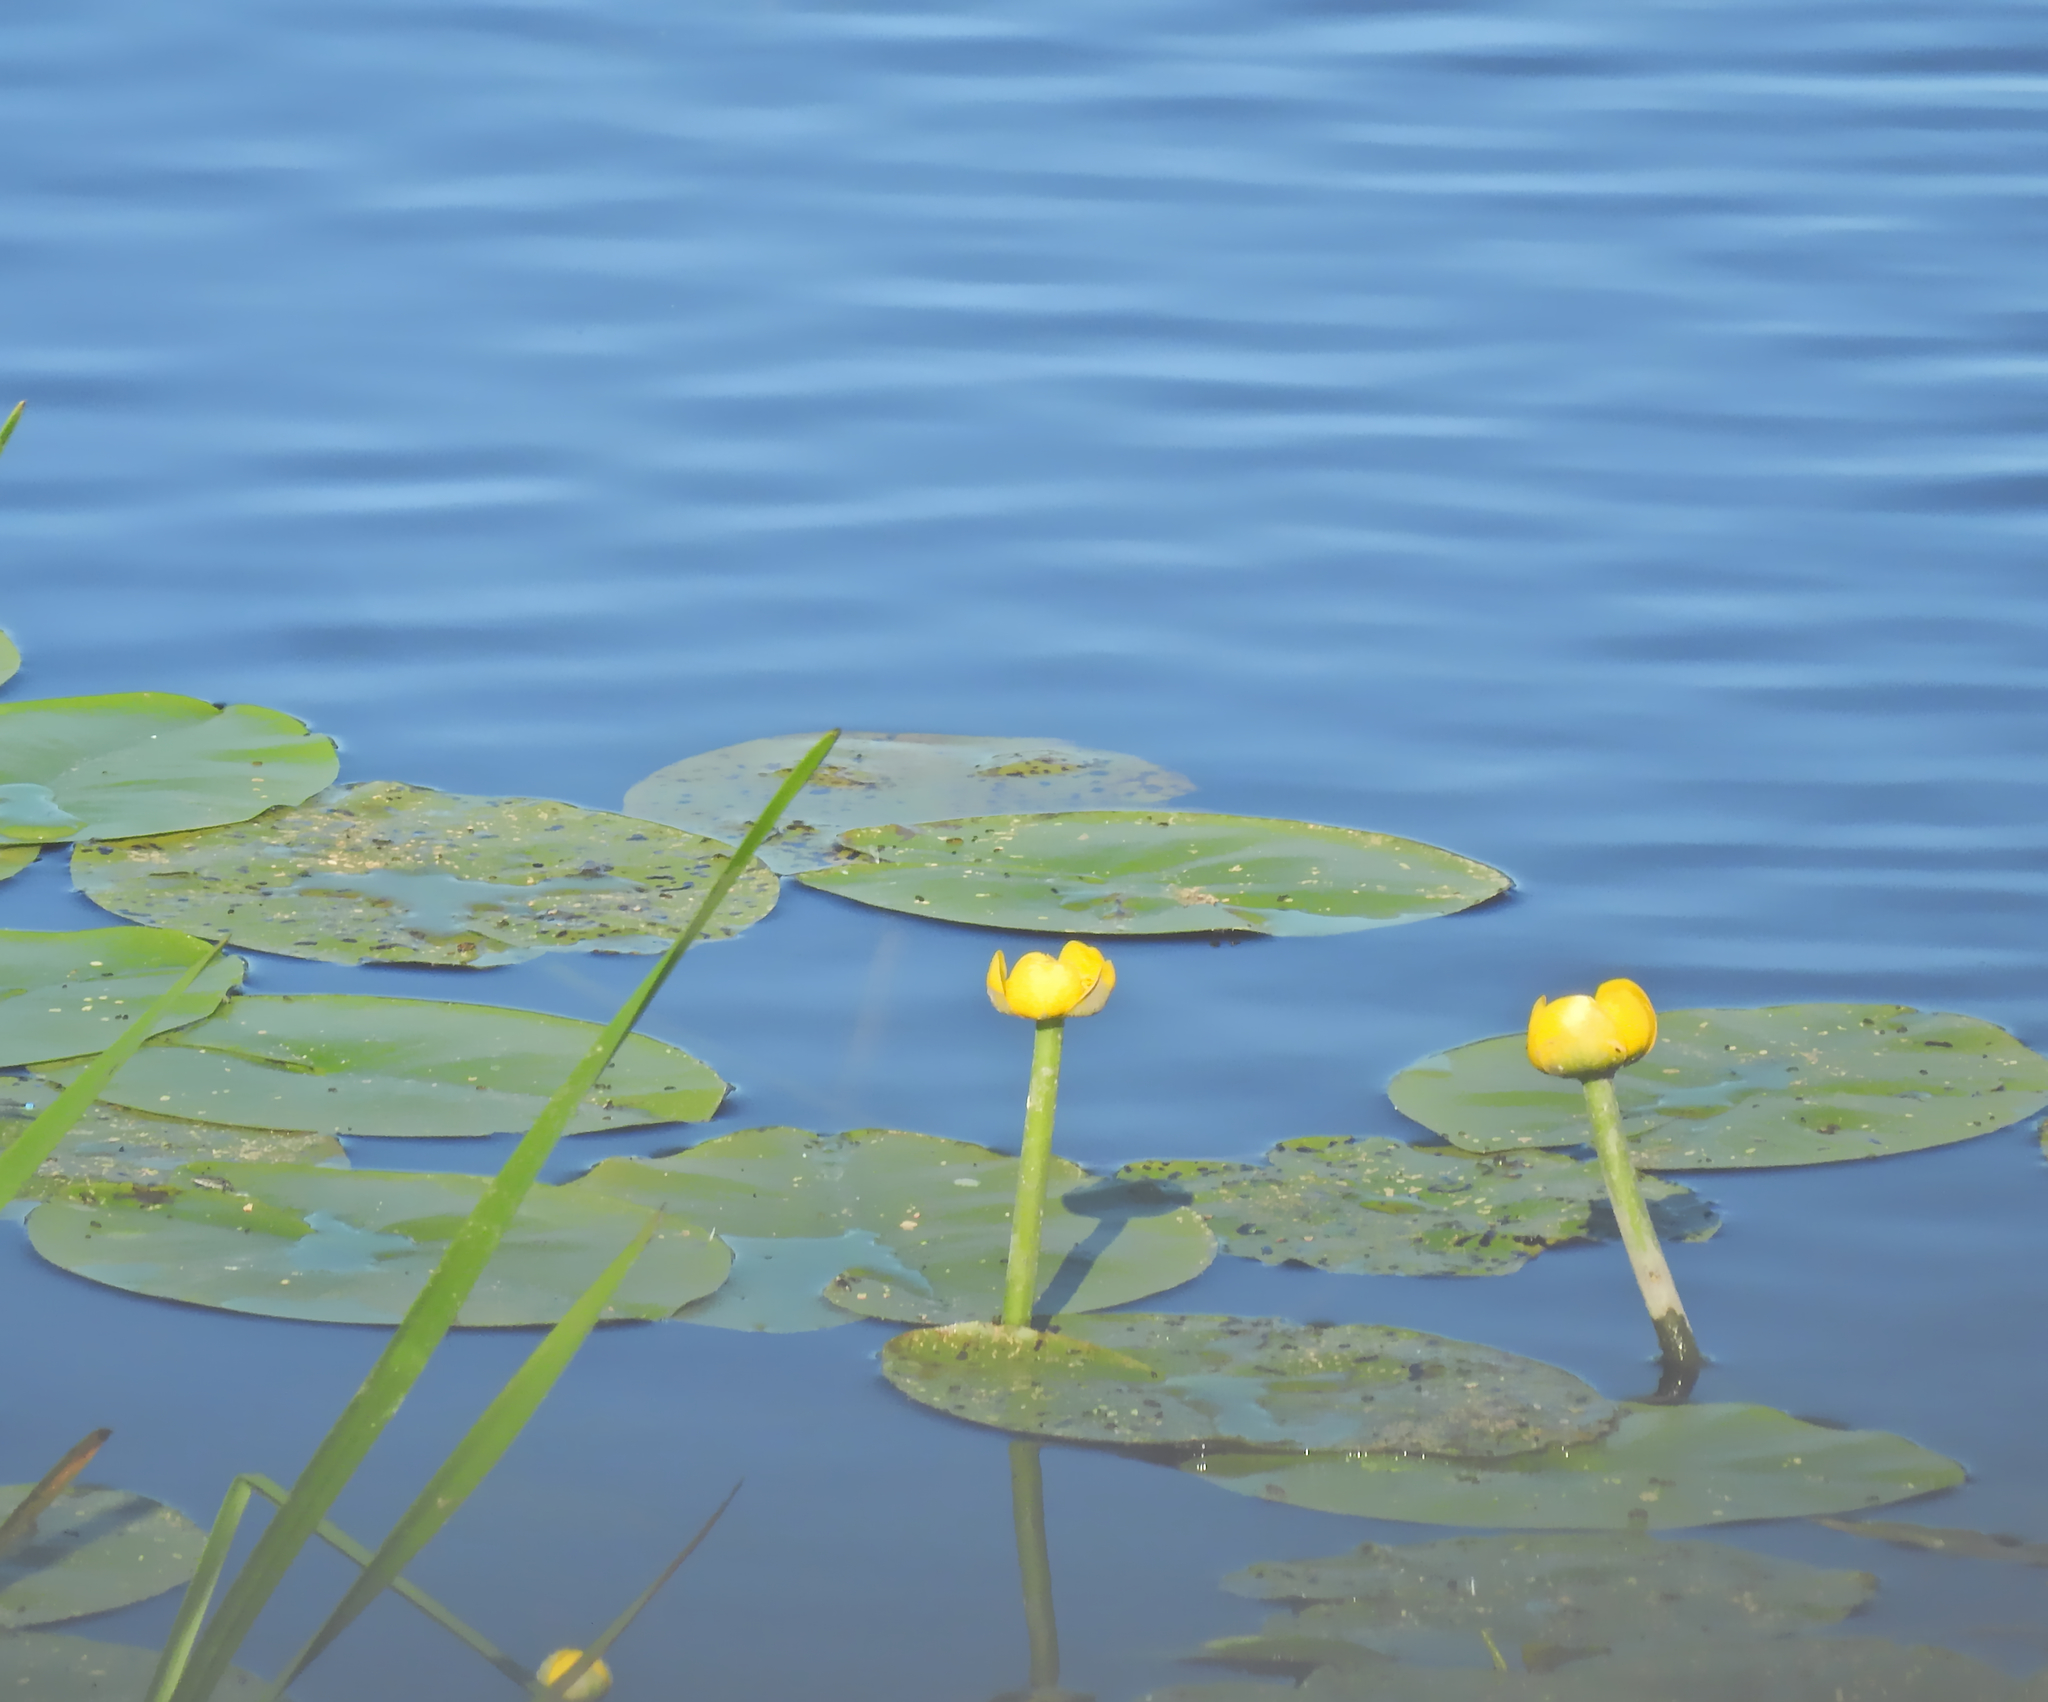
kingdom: Plantae
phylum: Tracheophyta
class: Magnoliopsida
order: Nymphaeales
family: Nymphaeaceae
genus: Nuphar
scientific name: Nuphar lutea
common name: Yellow water-lily
